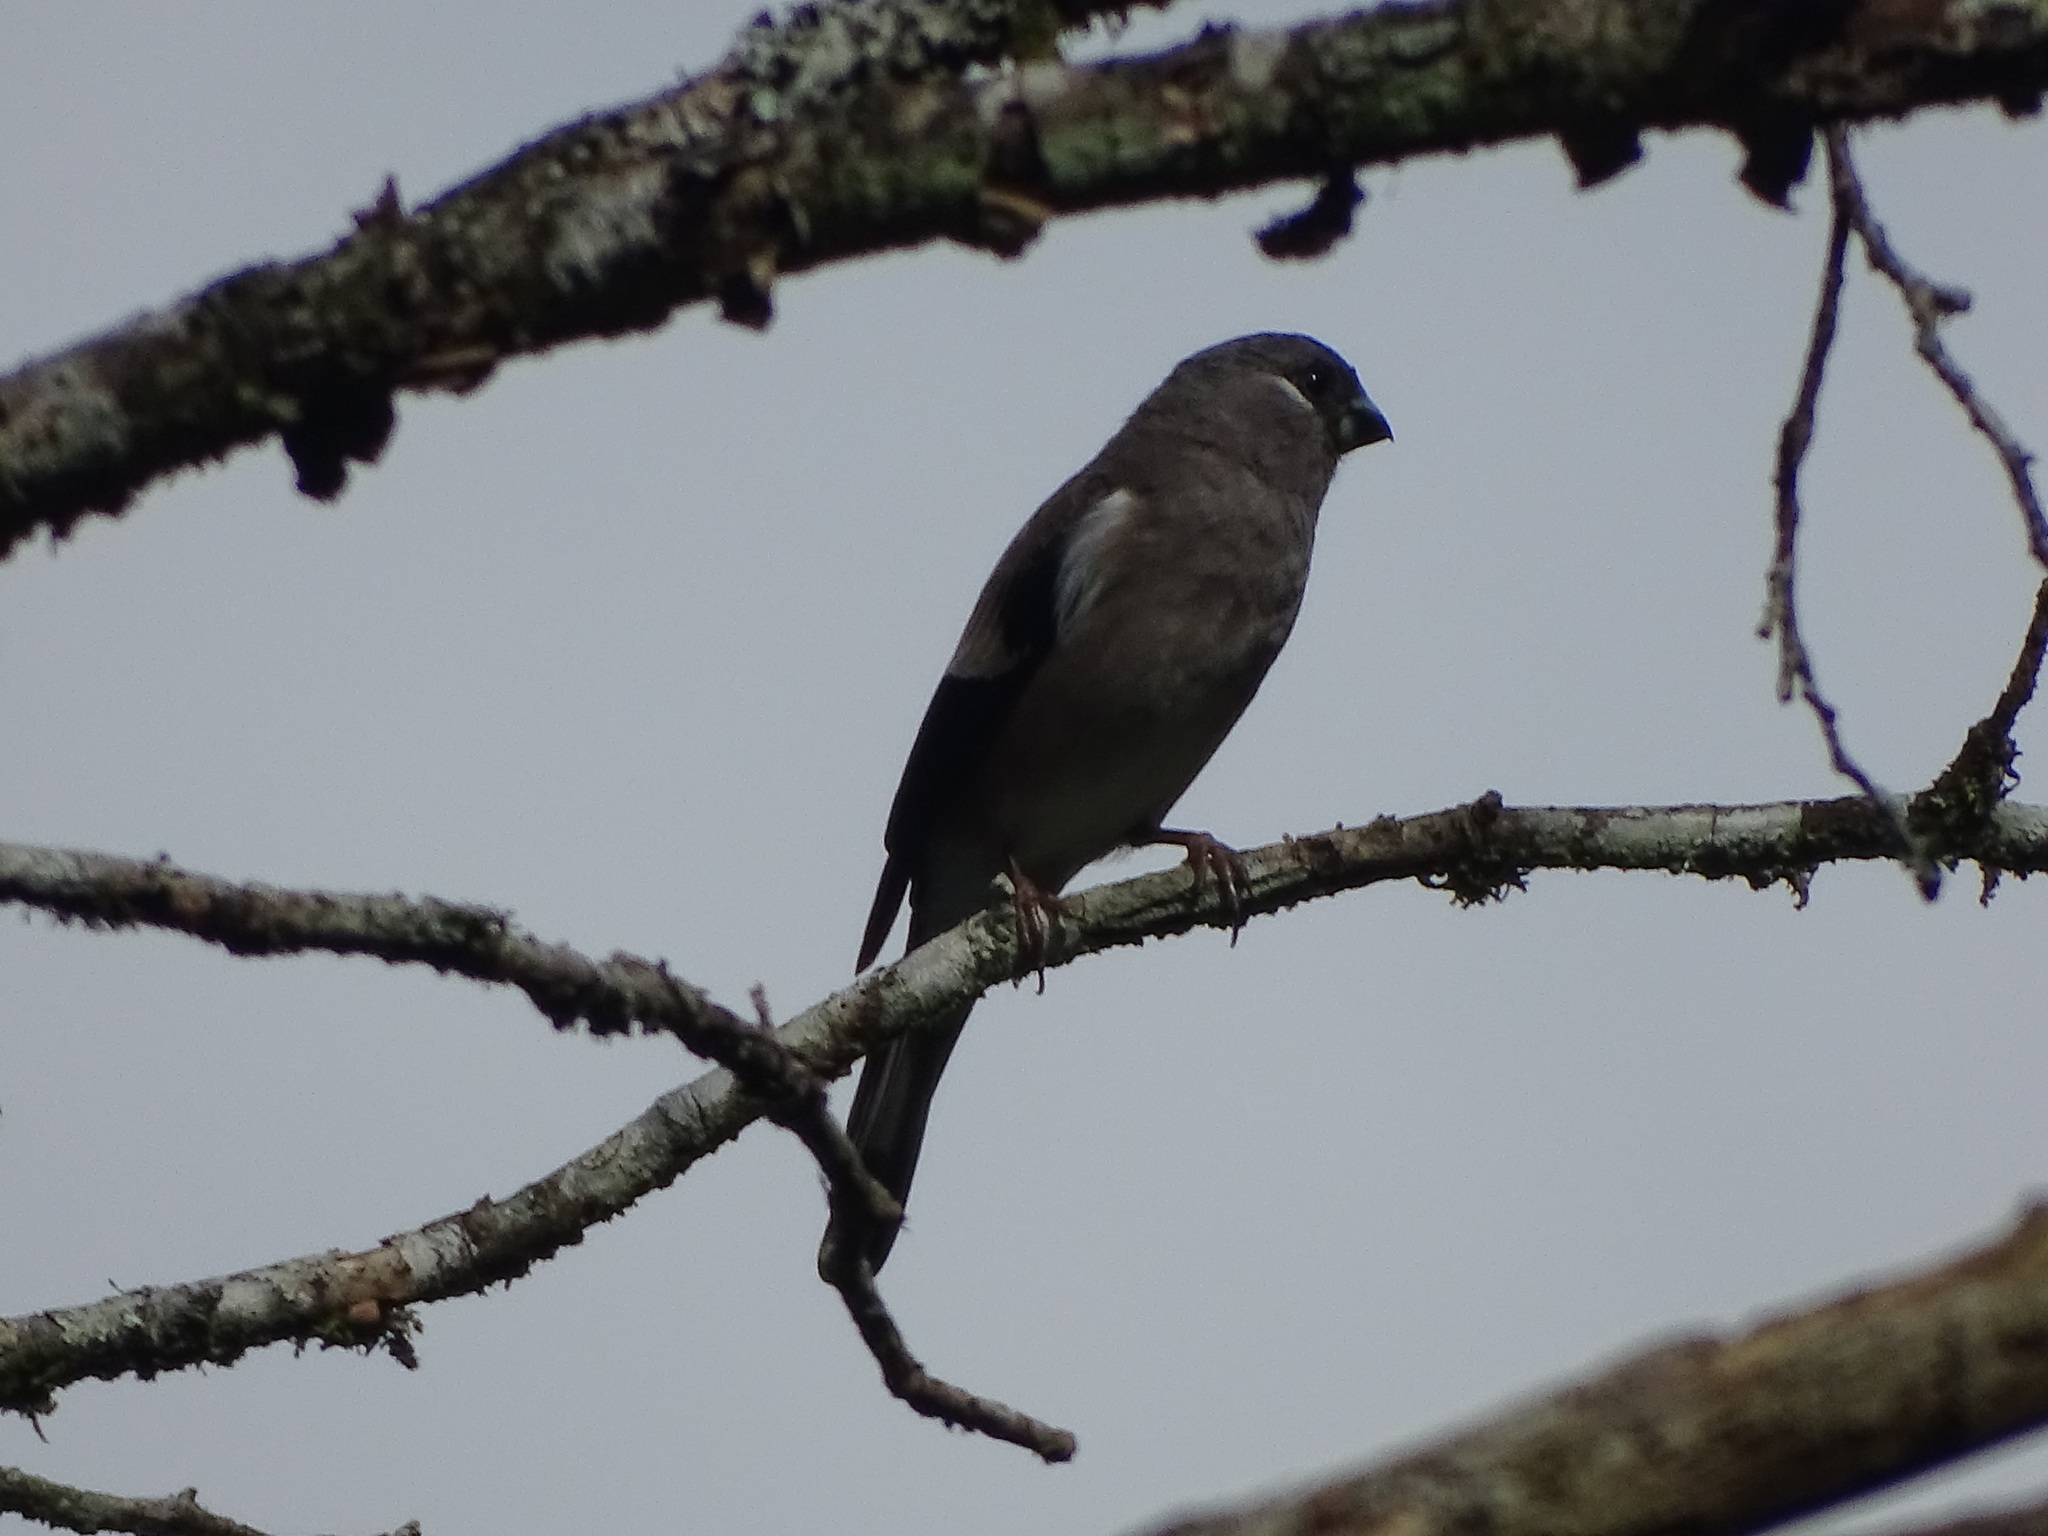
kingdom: Animalia
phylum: Chordata
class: Aves
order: Passeriformes
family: Fringillidae
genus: Pyrrhula
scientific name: Pyrrhula nipalensis
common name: Brown bullfinch
